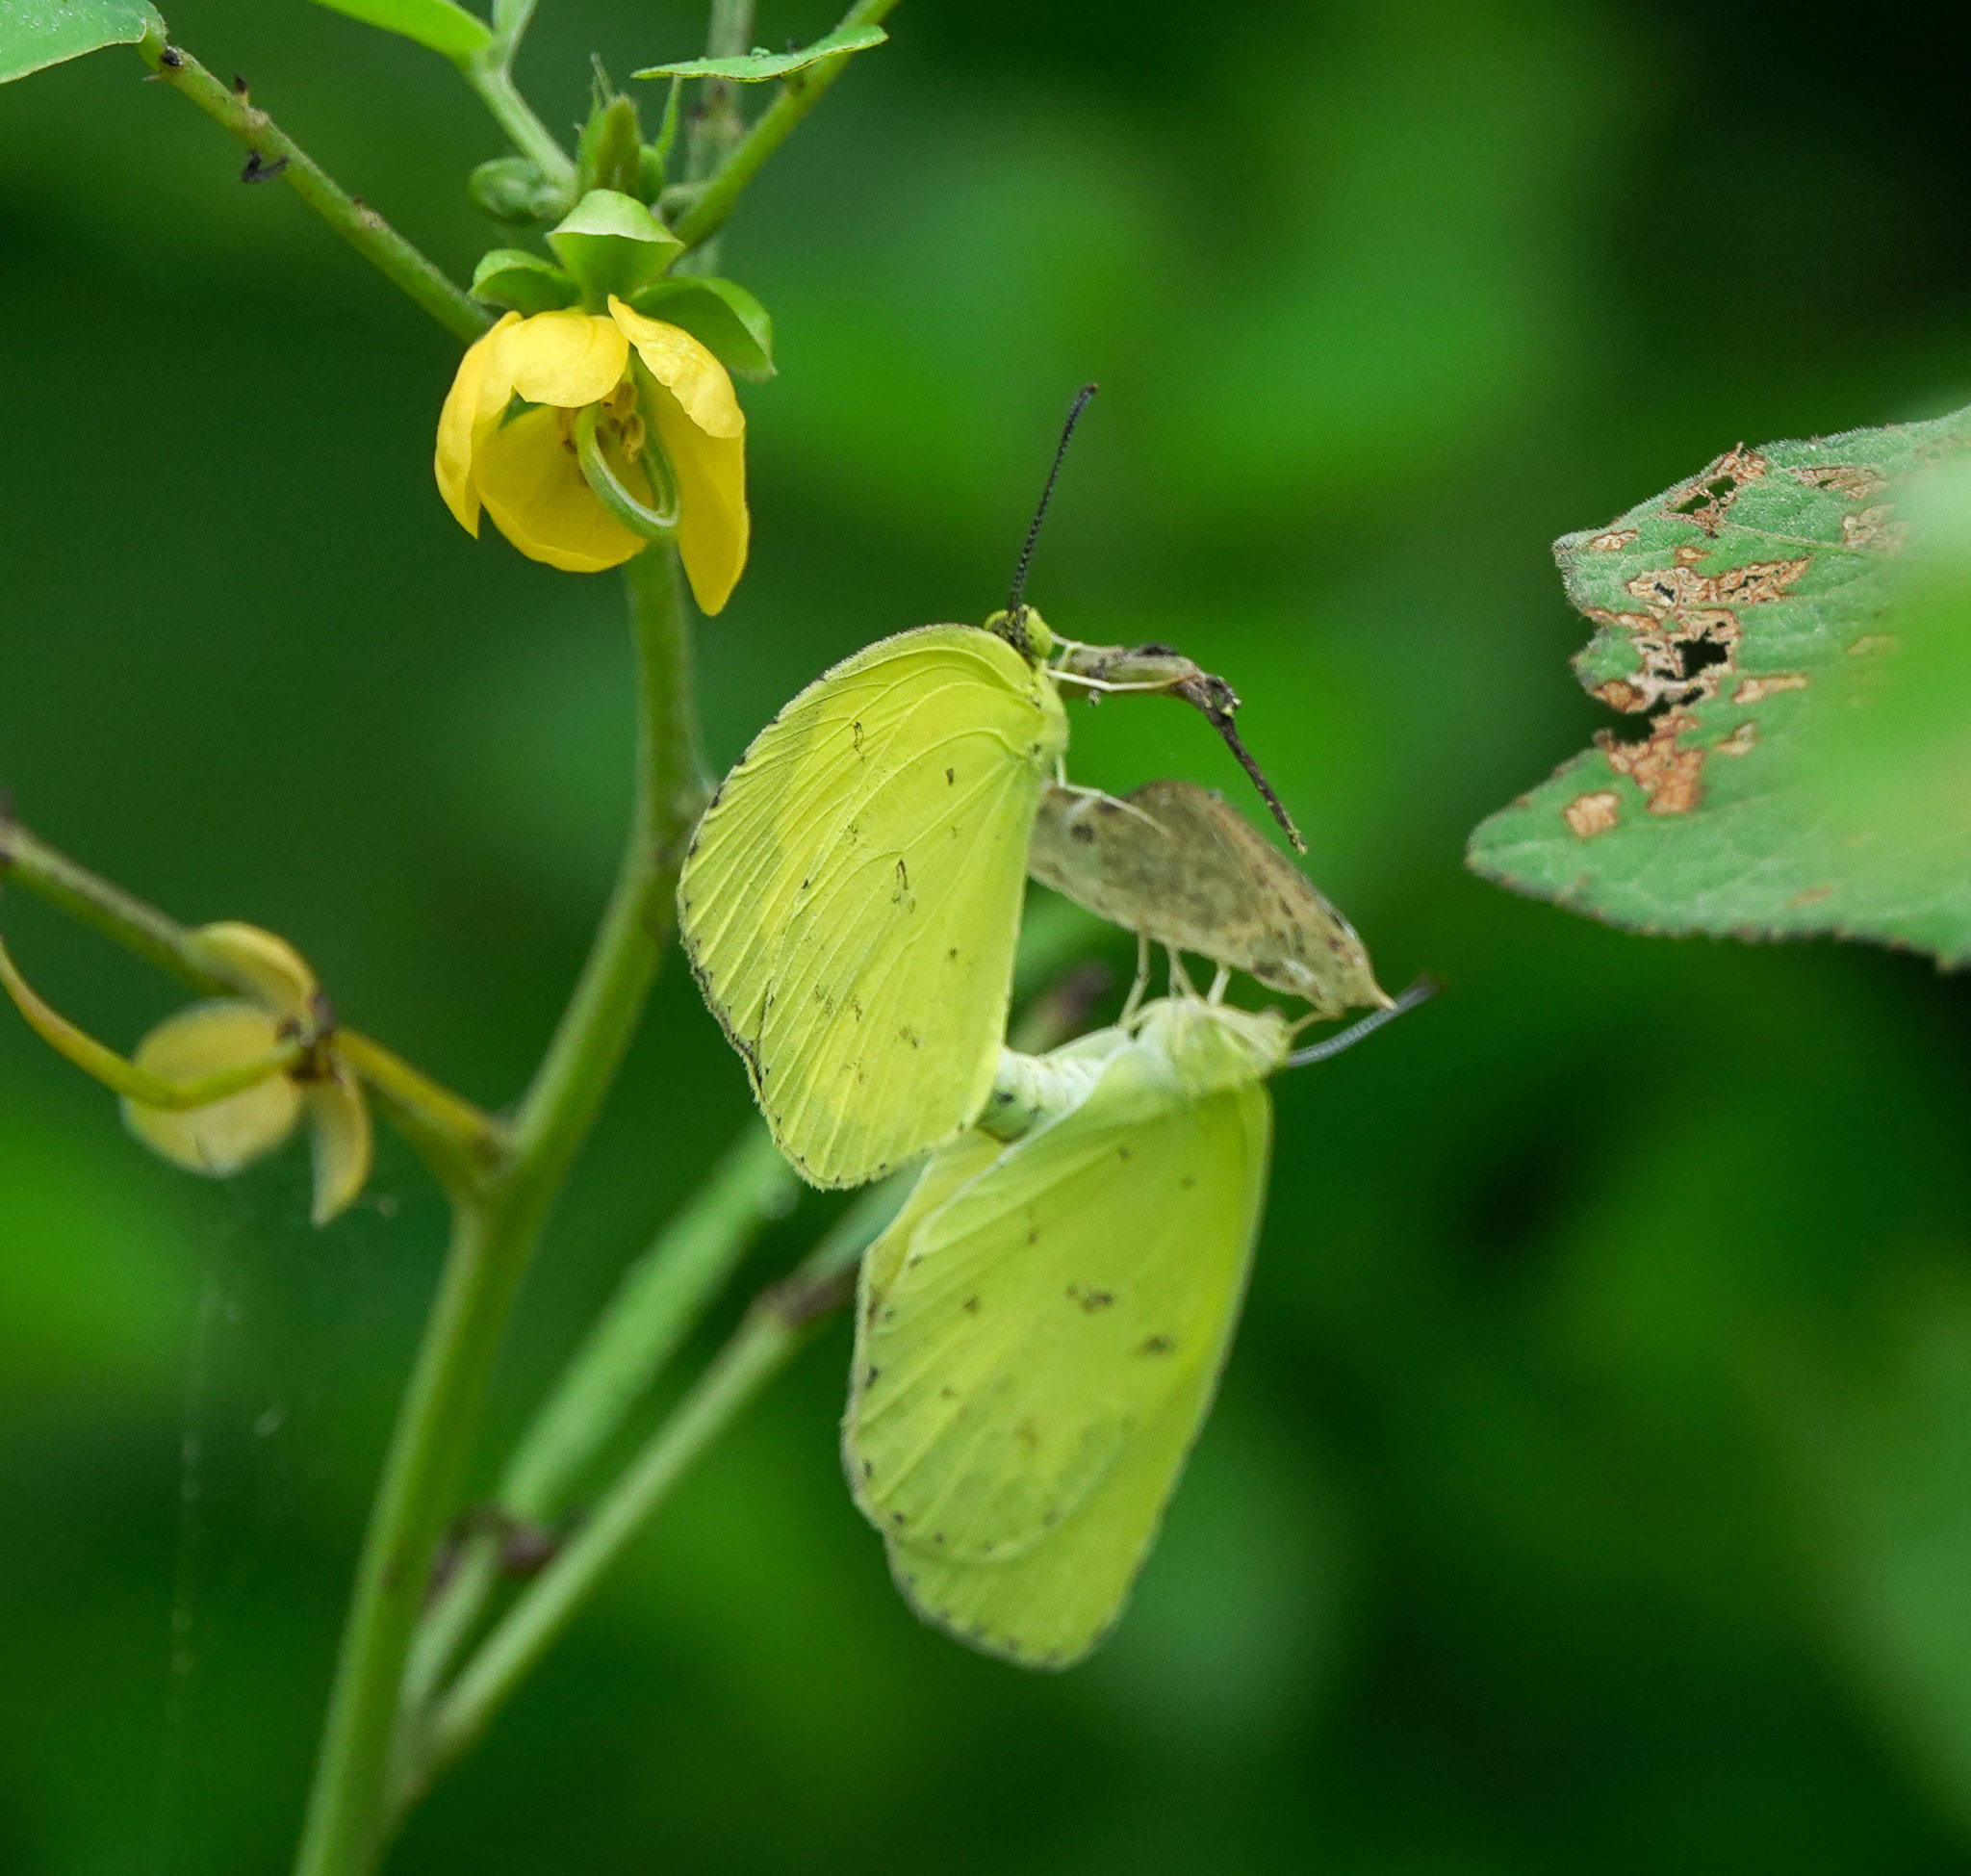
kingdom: Animalia
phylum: Arthropoda
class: Insecta
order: Lepidoptera
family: Pieridae
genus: Eurema
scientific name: Eurema hecabe
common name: Pale grass yellow
